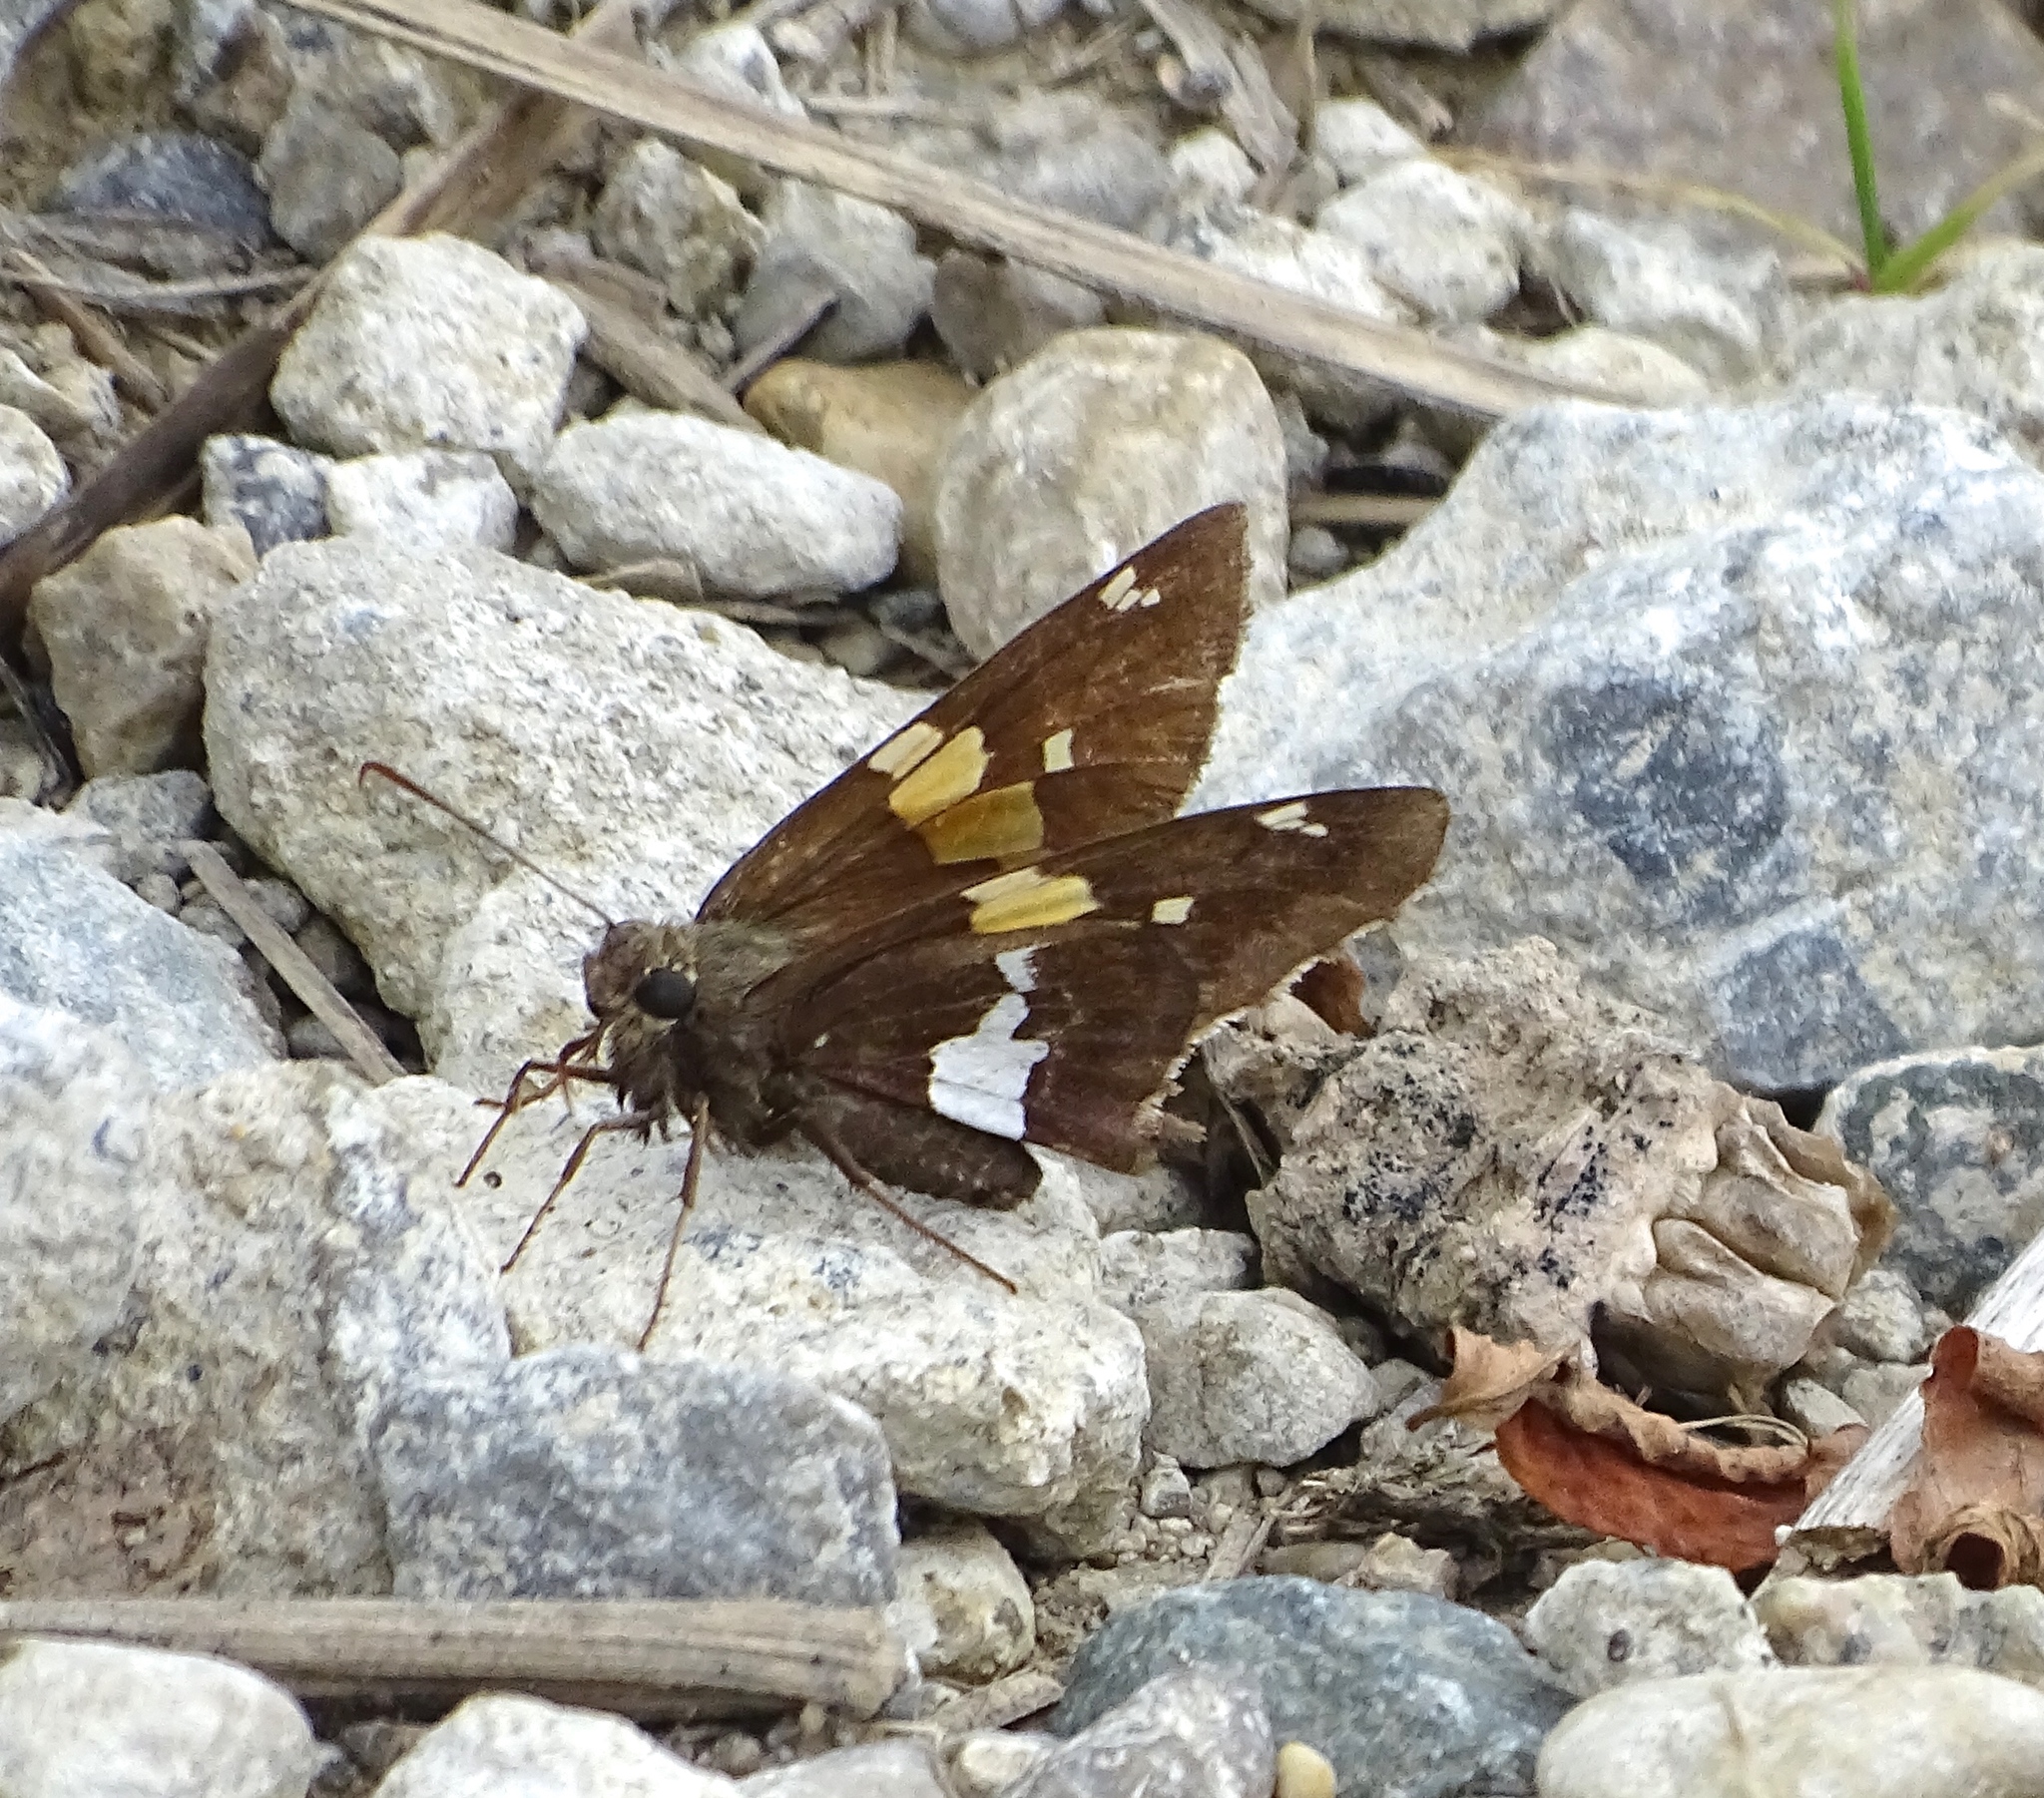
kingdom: Animalia
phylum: Arthropoda
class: Insecta
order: Lepidoptera
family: Hesperiidae
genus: Epargyreus
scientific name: Epargyreus clarus
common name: Silver-spotted skipper
